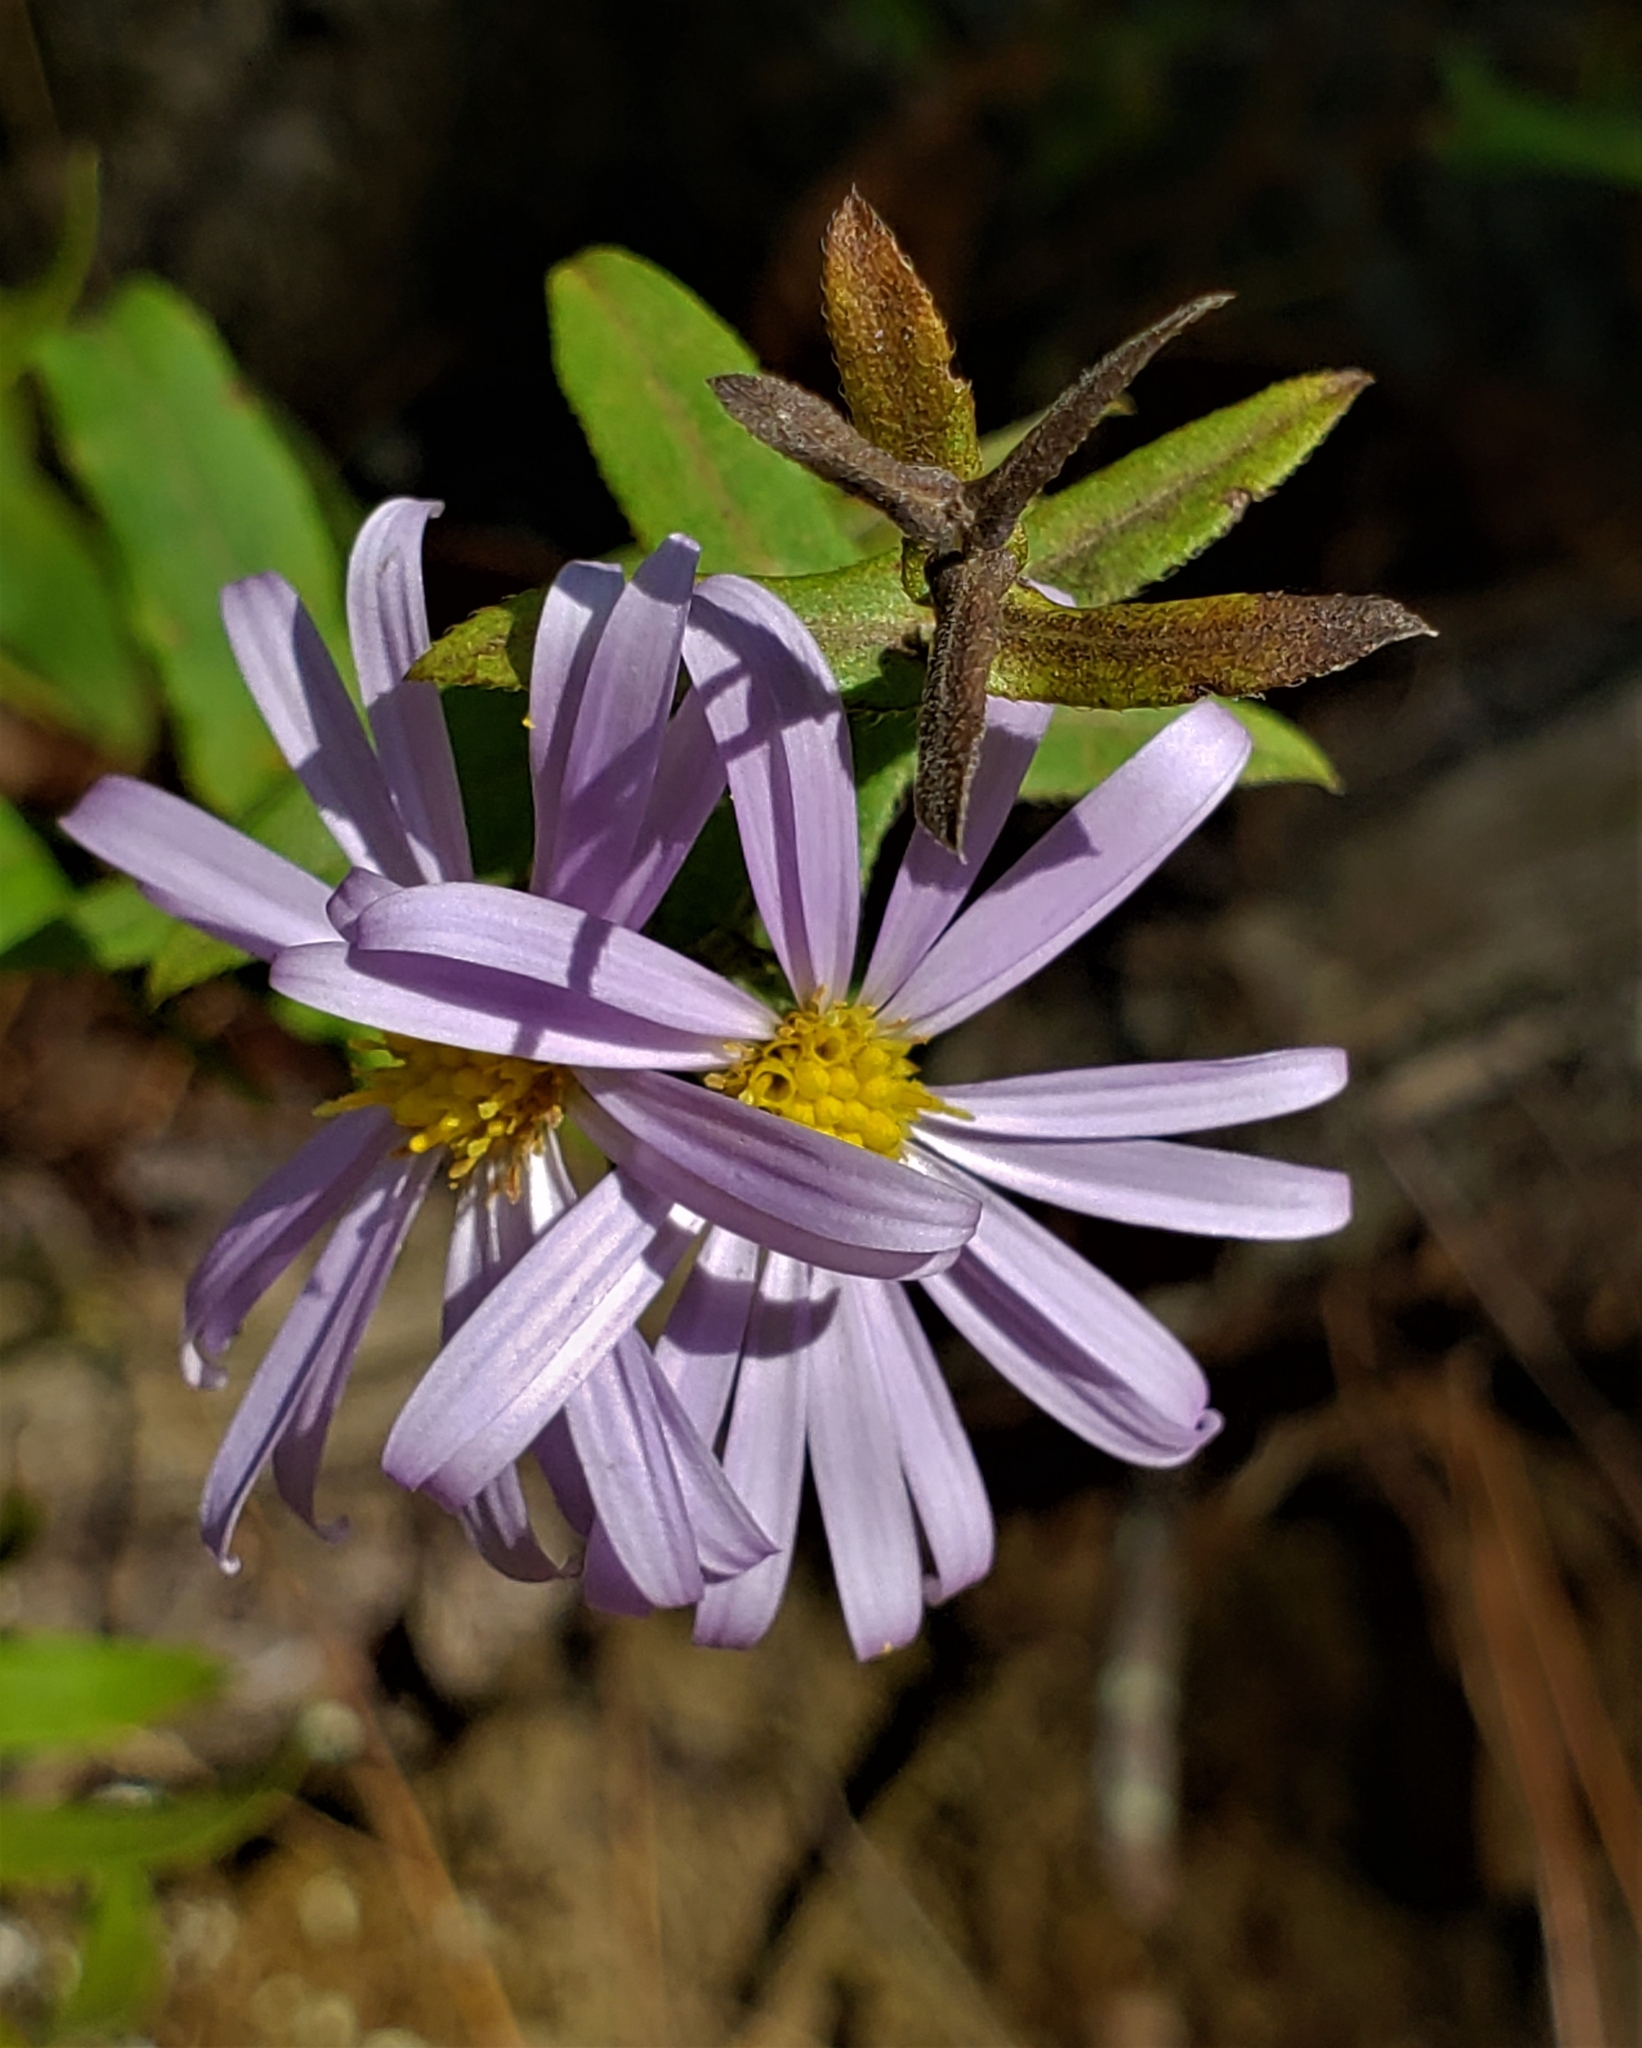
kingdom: Plantae
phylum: Tracheophyta
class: Magnoliopsida
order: Asterales
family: Asteraceae
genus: Symphyotrichum
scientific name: Symphyotrichum patens
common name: Late purple aster
